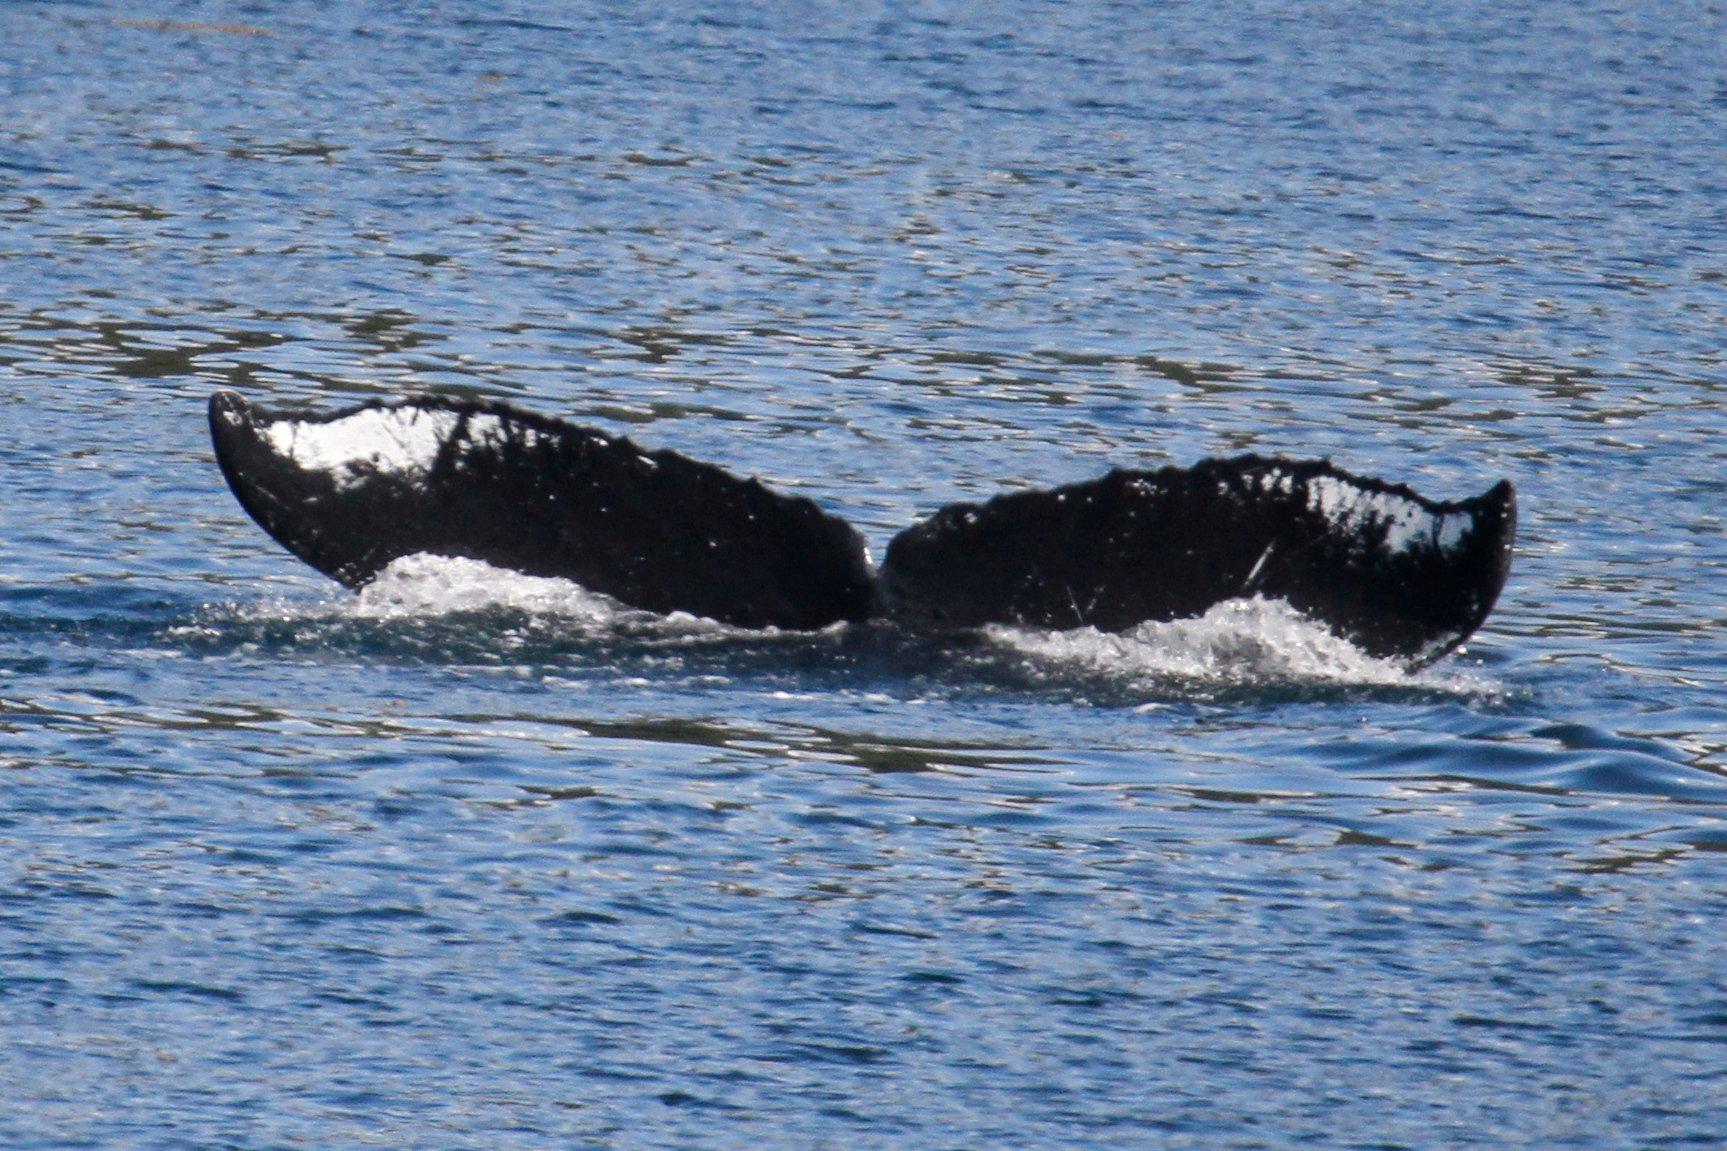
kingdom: Animalia
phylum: Chordata
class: Mammalia
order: Cetacea
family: Balaenopteridae
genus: Megaptera
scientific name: Megaptera novaeangliae
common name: Humpback whale
